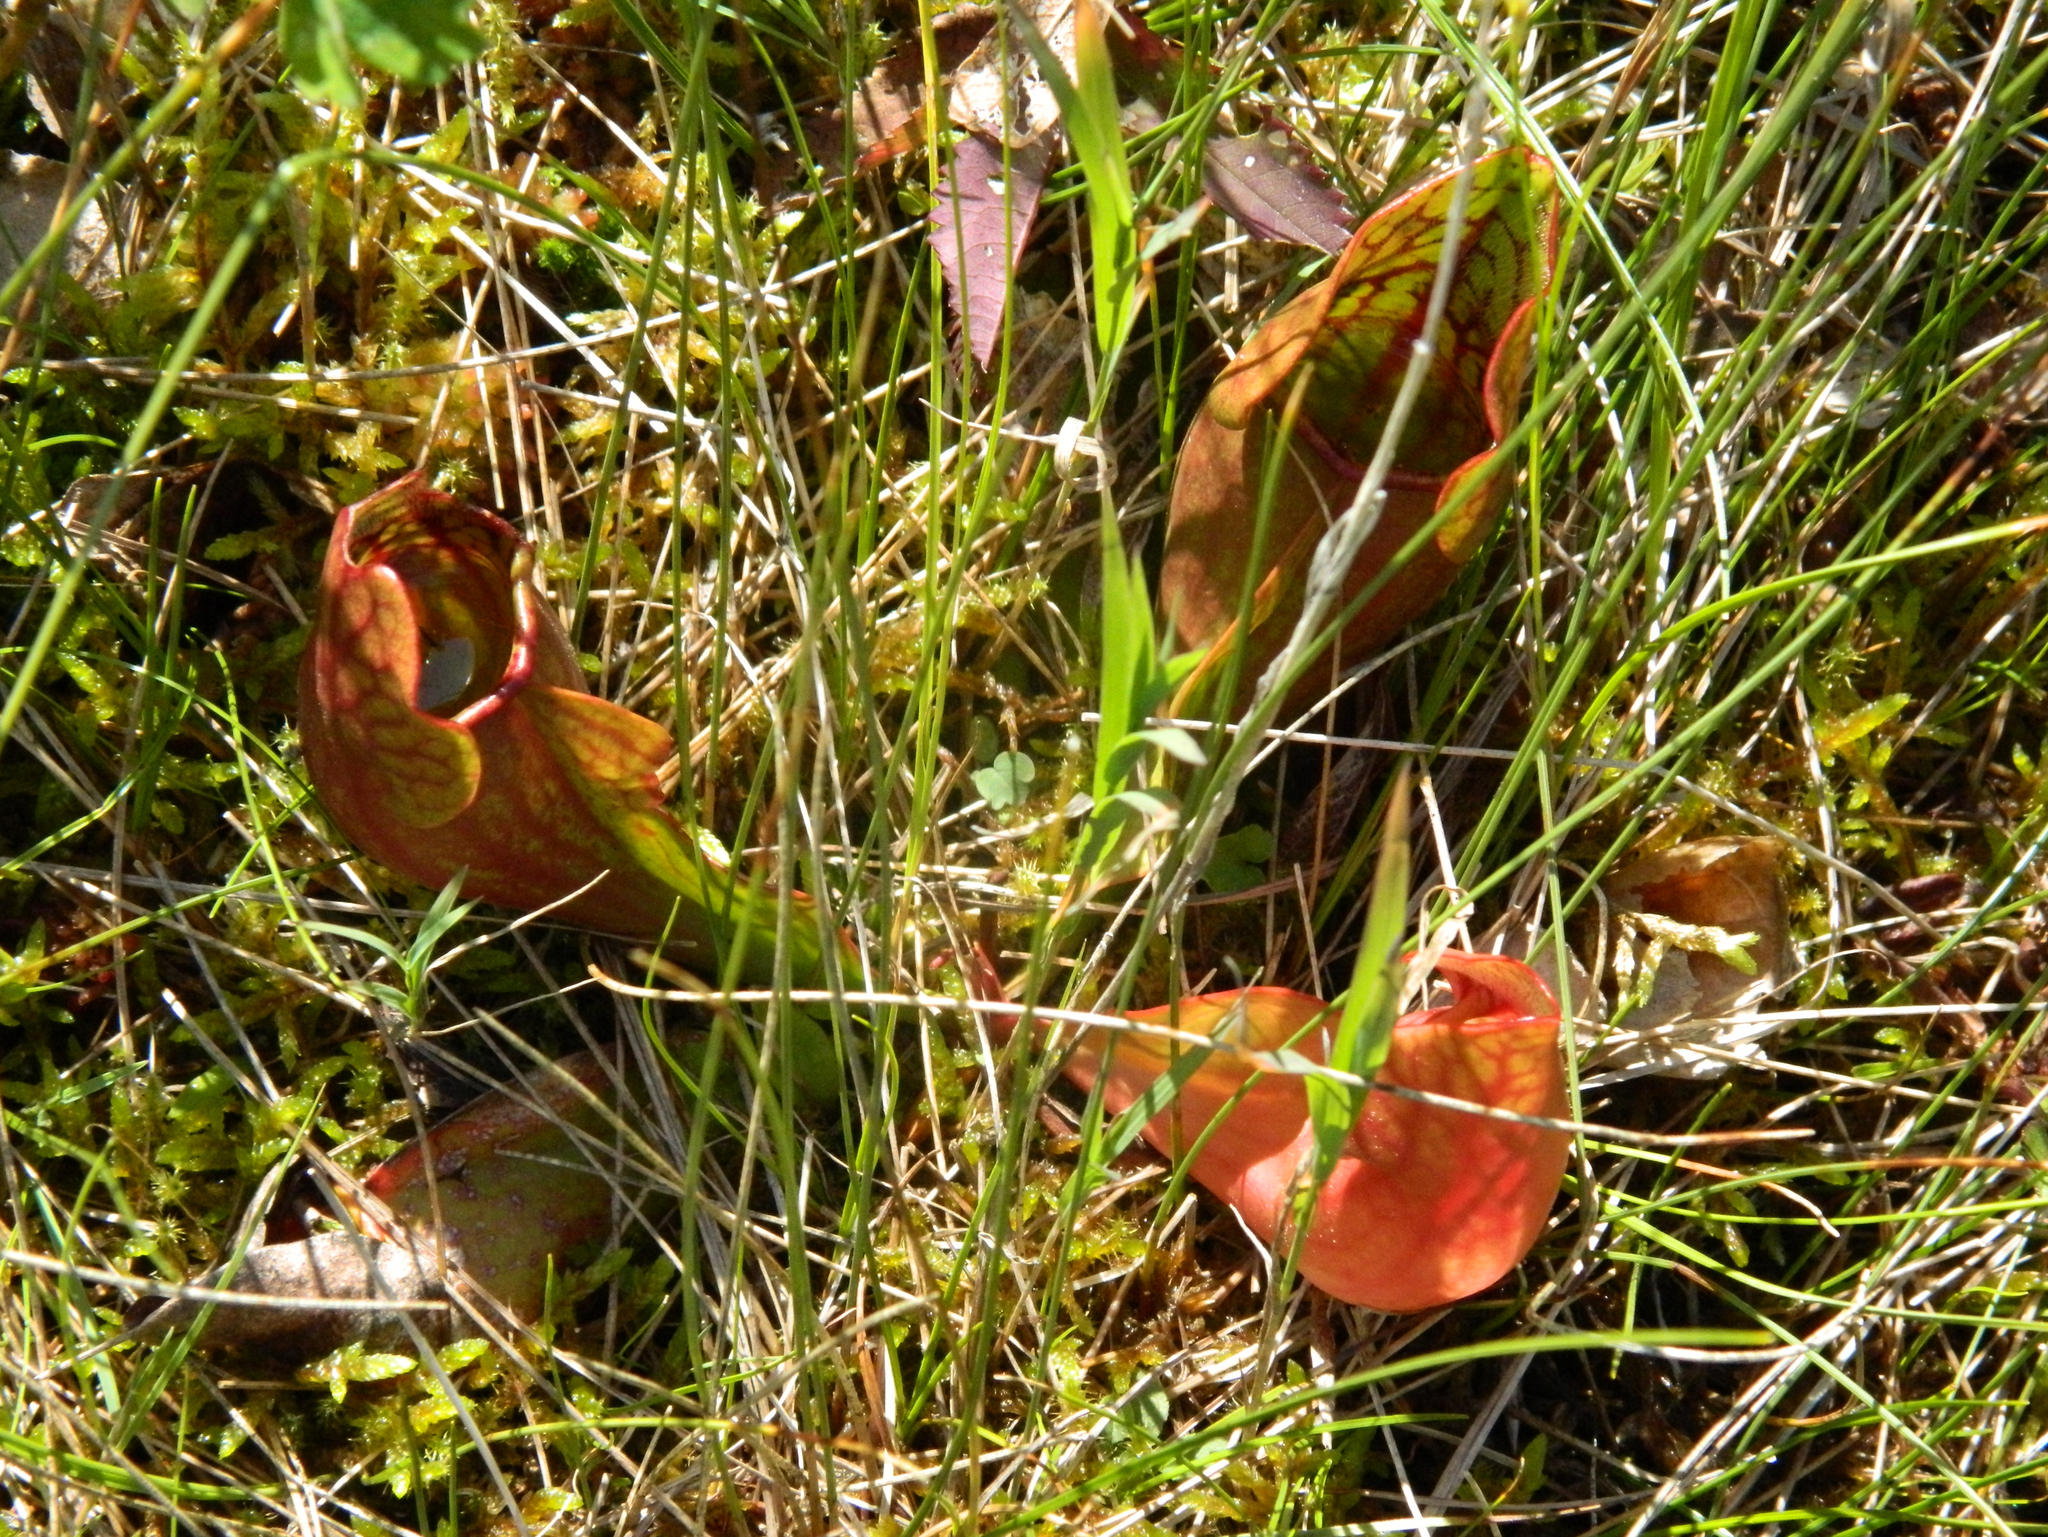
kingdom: Plantae
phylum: Tracheophyta
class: Magnoliopsida
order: Ericales
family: Sarraceniaceae
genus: Sarracenia
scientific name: Sarracenia purpurea
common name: Pitcherplant
